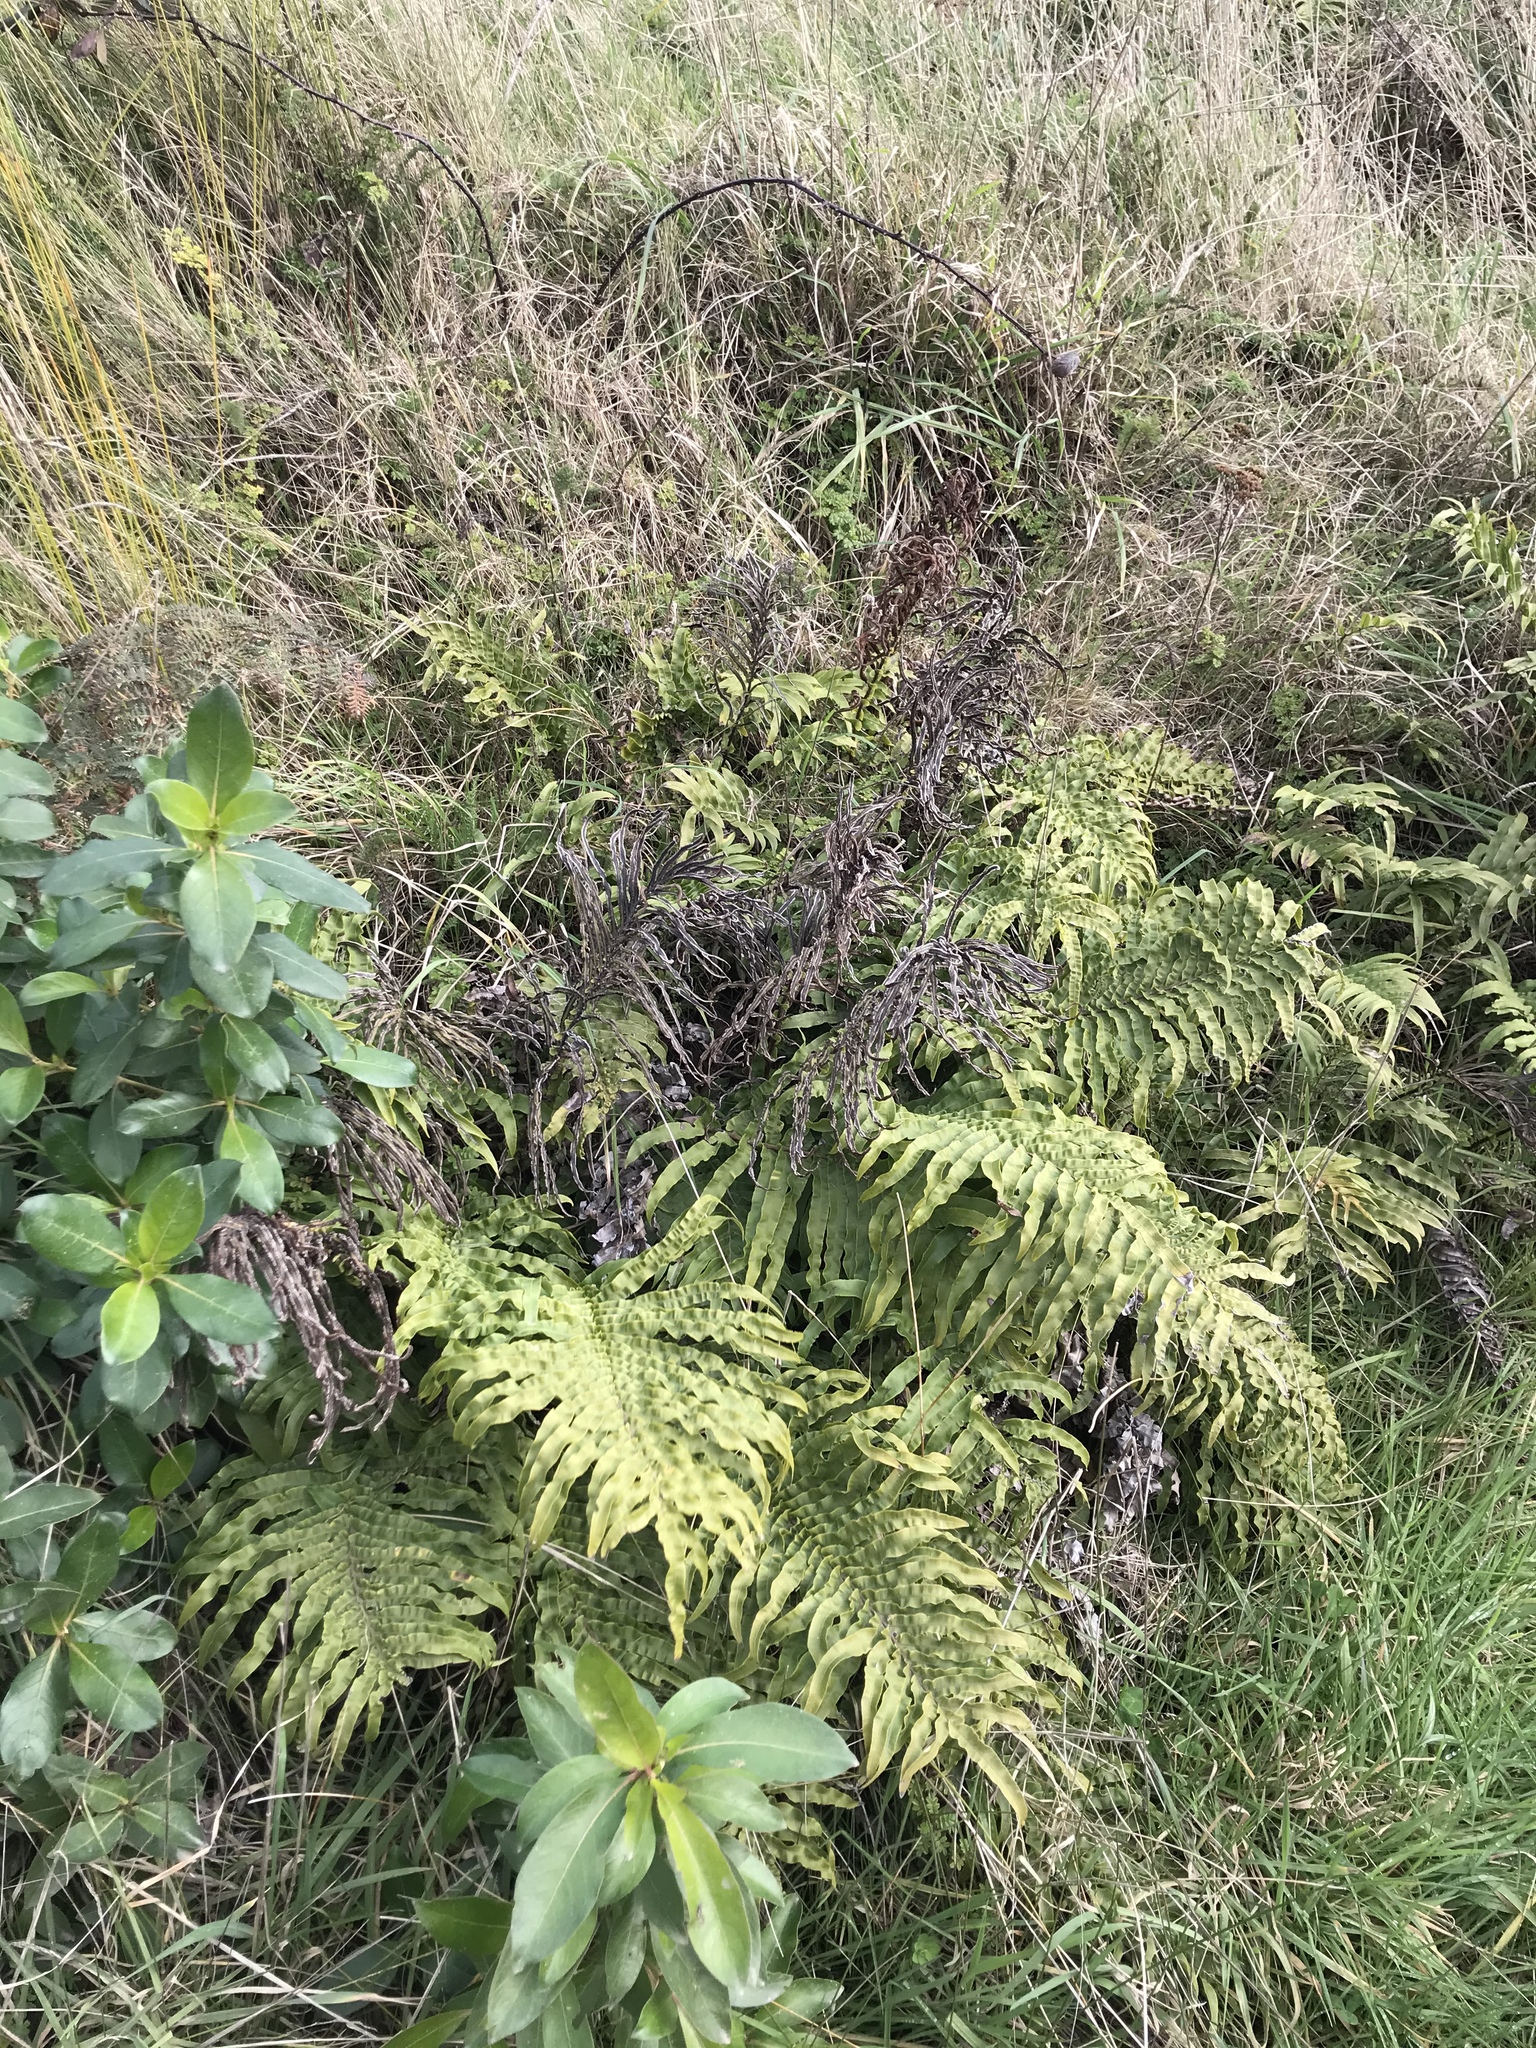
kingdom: Plantae
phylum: Tracheophyta
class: Polypodiopsida
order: Polypodiales
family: Blechnaceae
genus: Parablechnum
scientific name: Parablechnum novae-zelandiae
